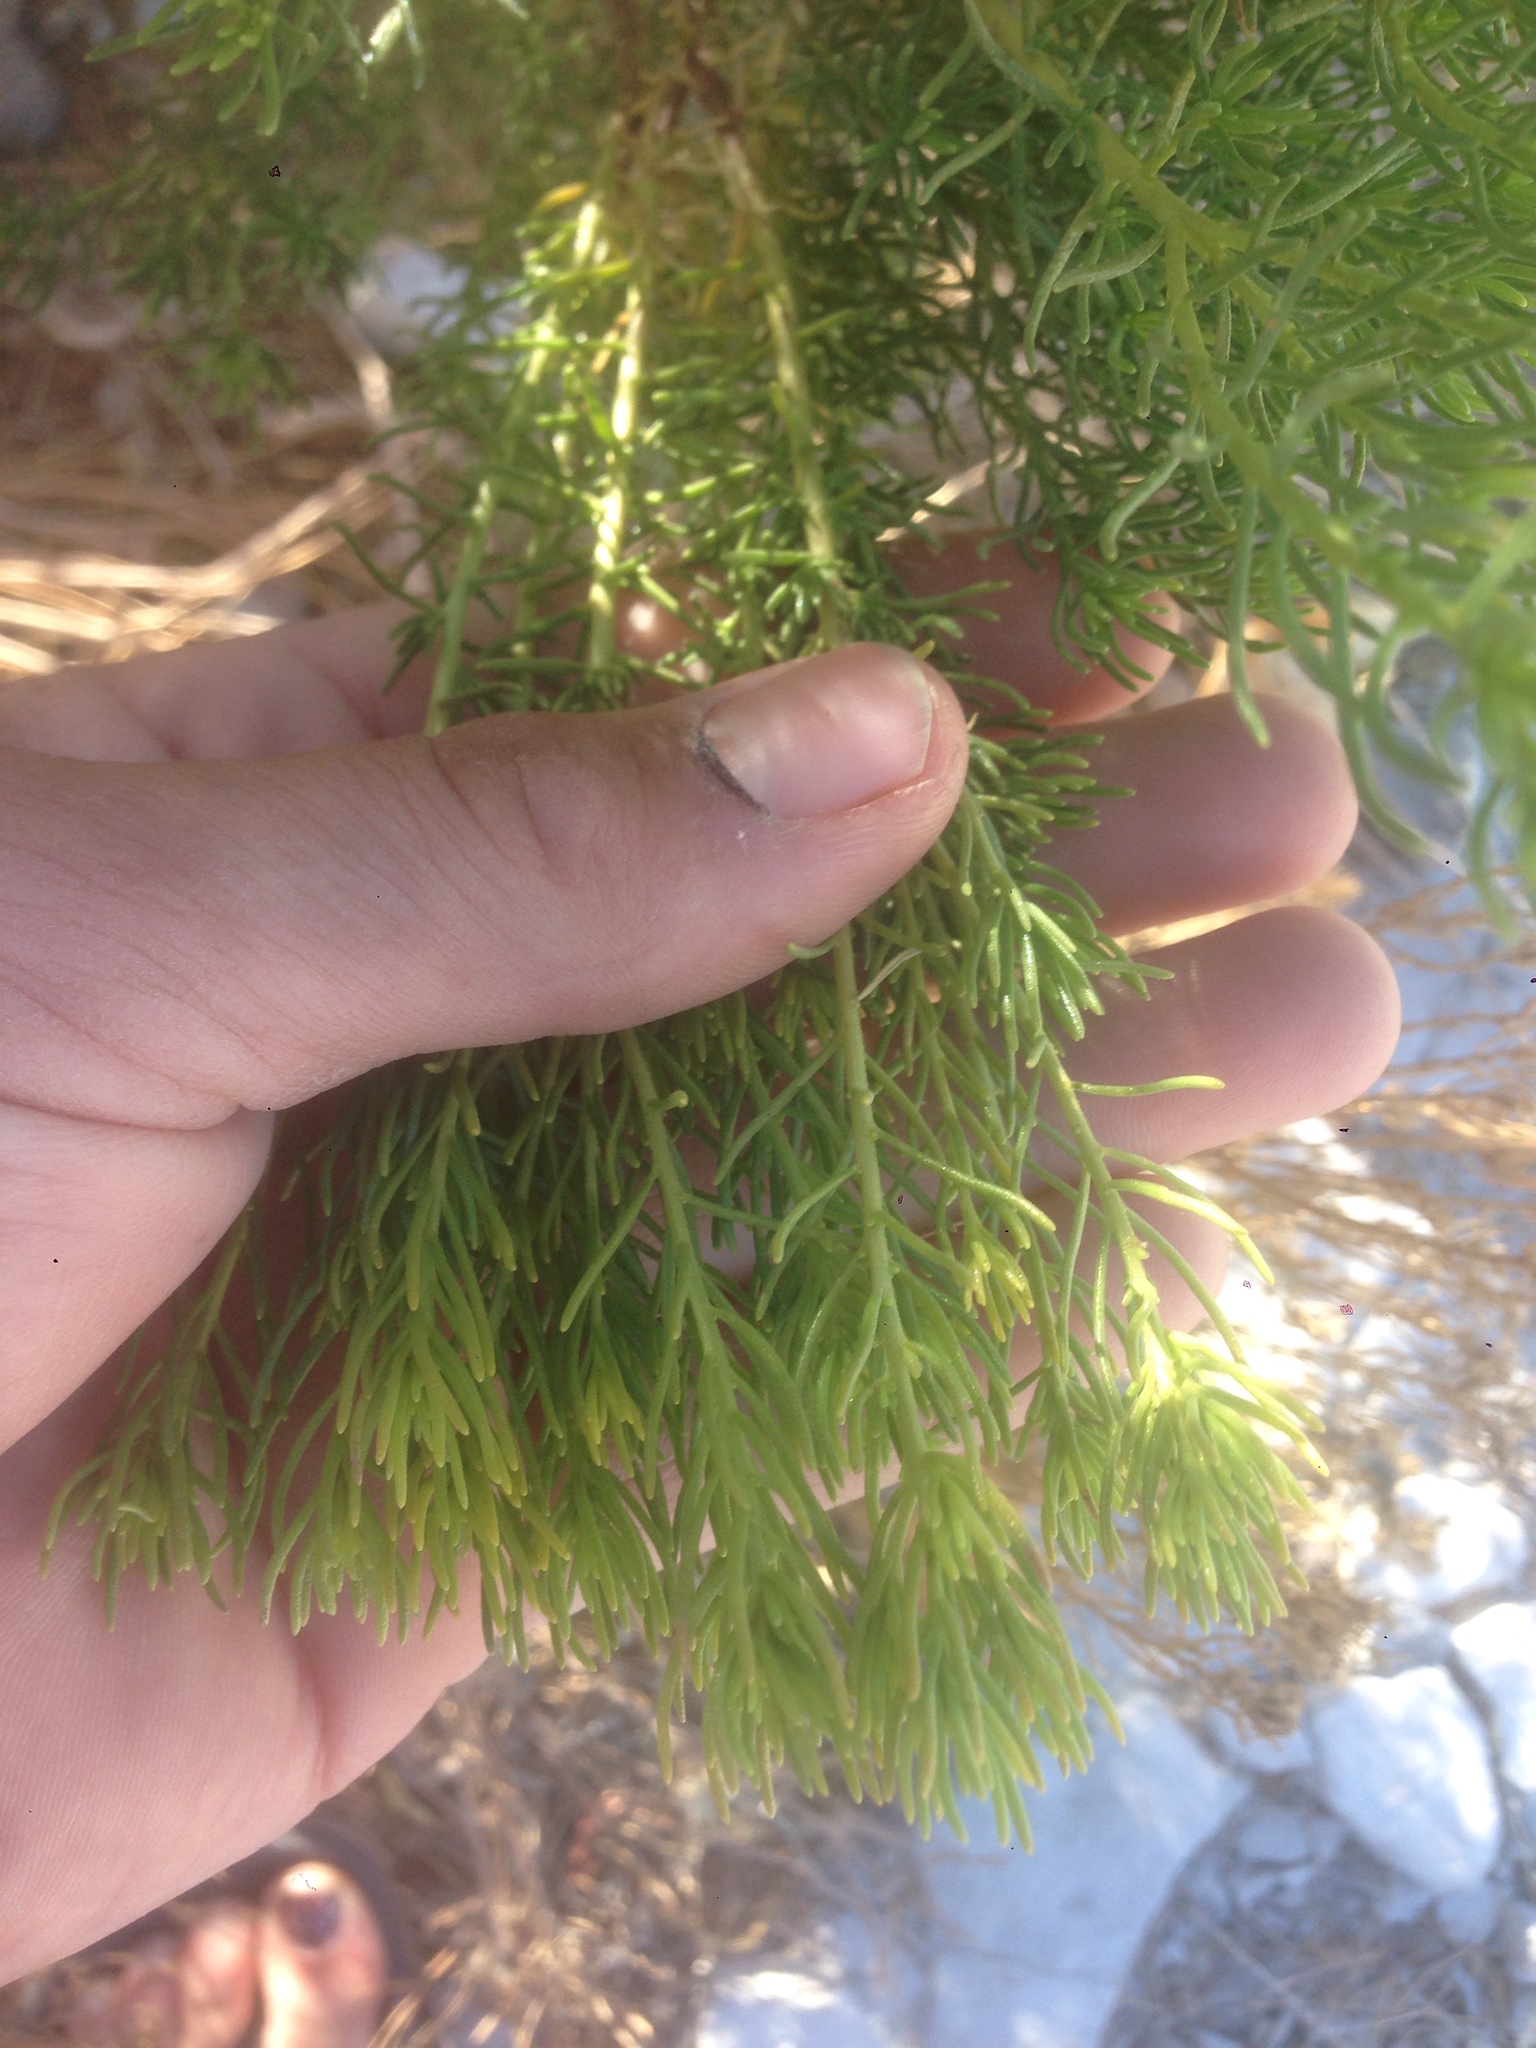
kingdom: Plantae
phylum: Tracheophyta
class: Magnoliopsida
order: Asterales
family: Asteraceae
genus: Peucephyllum
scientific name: Peucephyllum schottii
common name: Pygmy-cedar
